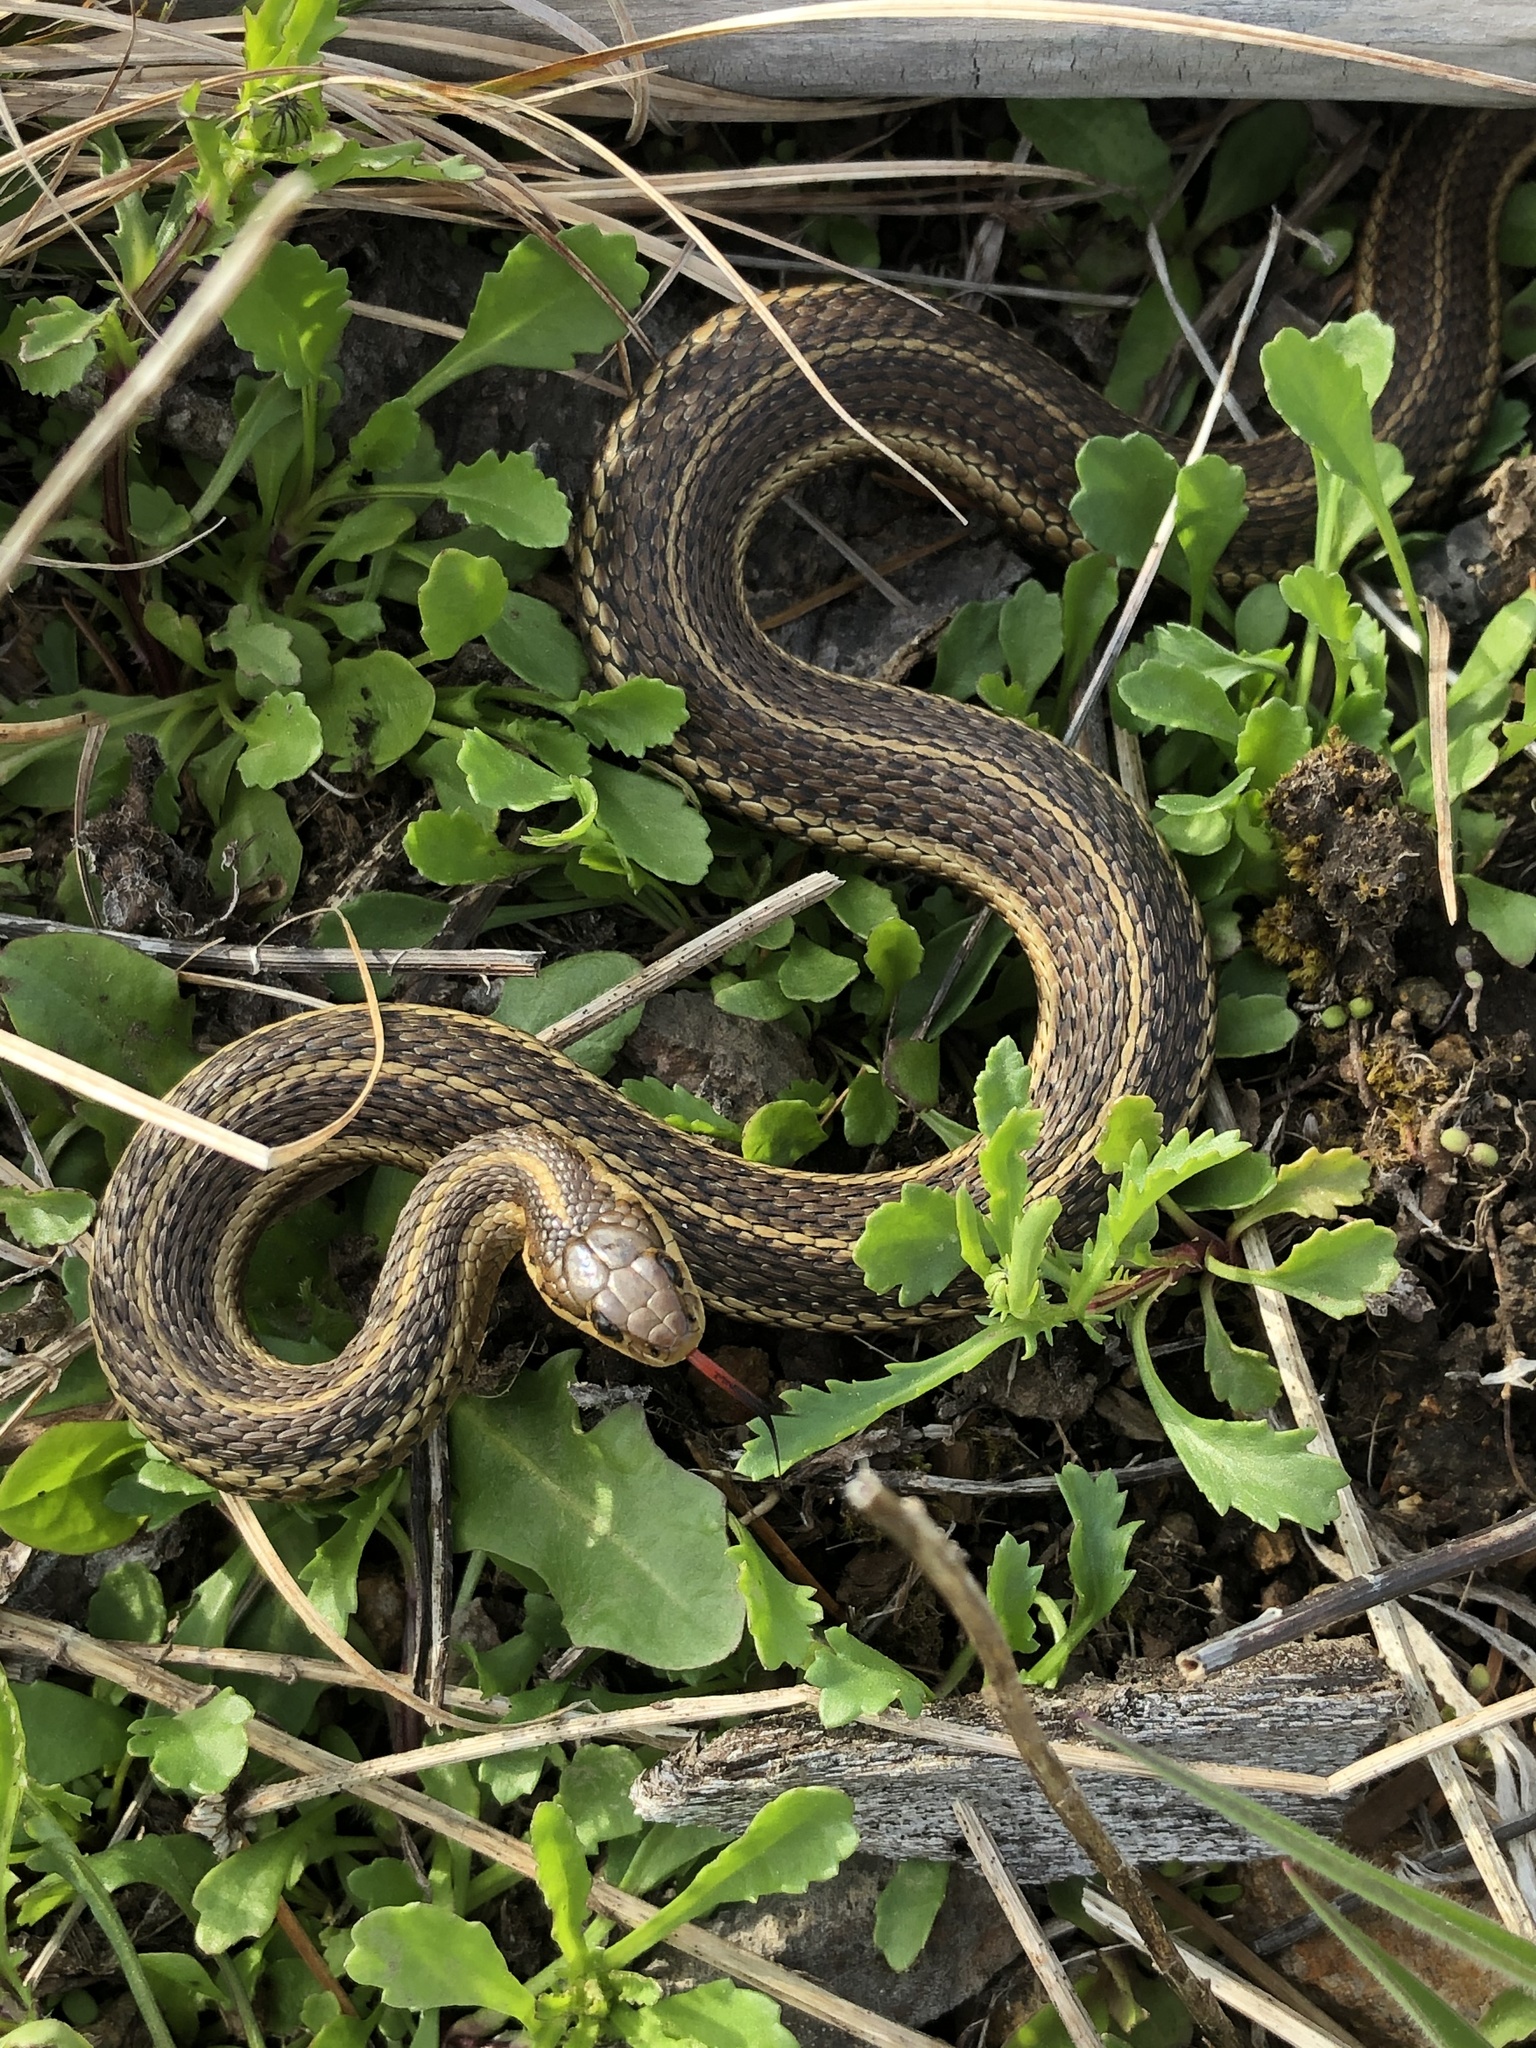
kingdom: Animalia
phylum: Chordata
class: Squamata
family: Colubridae
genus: Thamnophis
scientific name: Thamnophis ordinoides
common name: Northwestern garter snake
